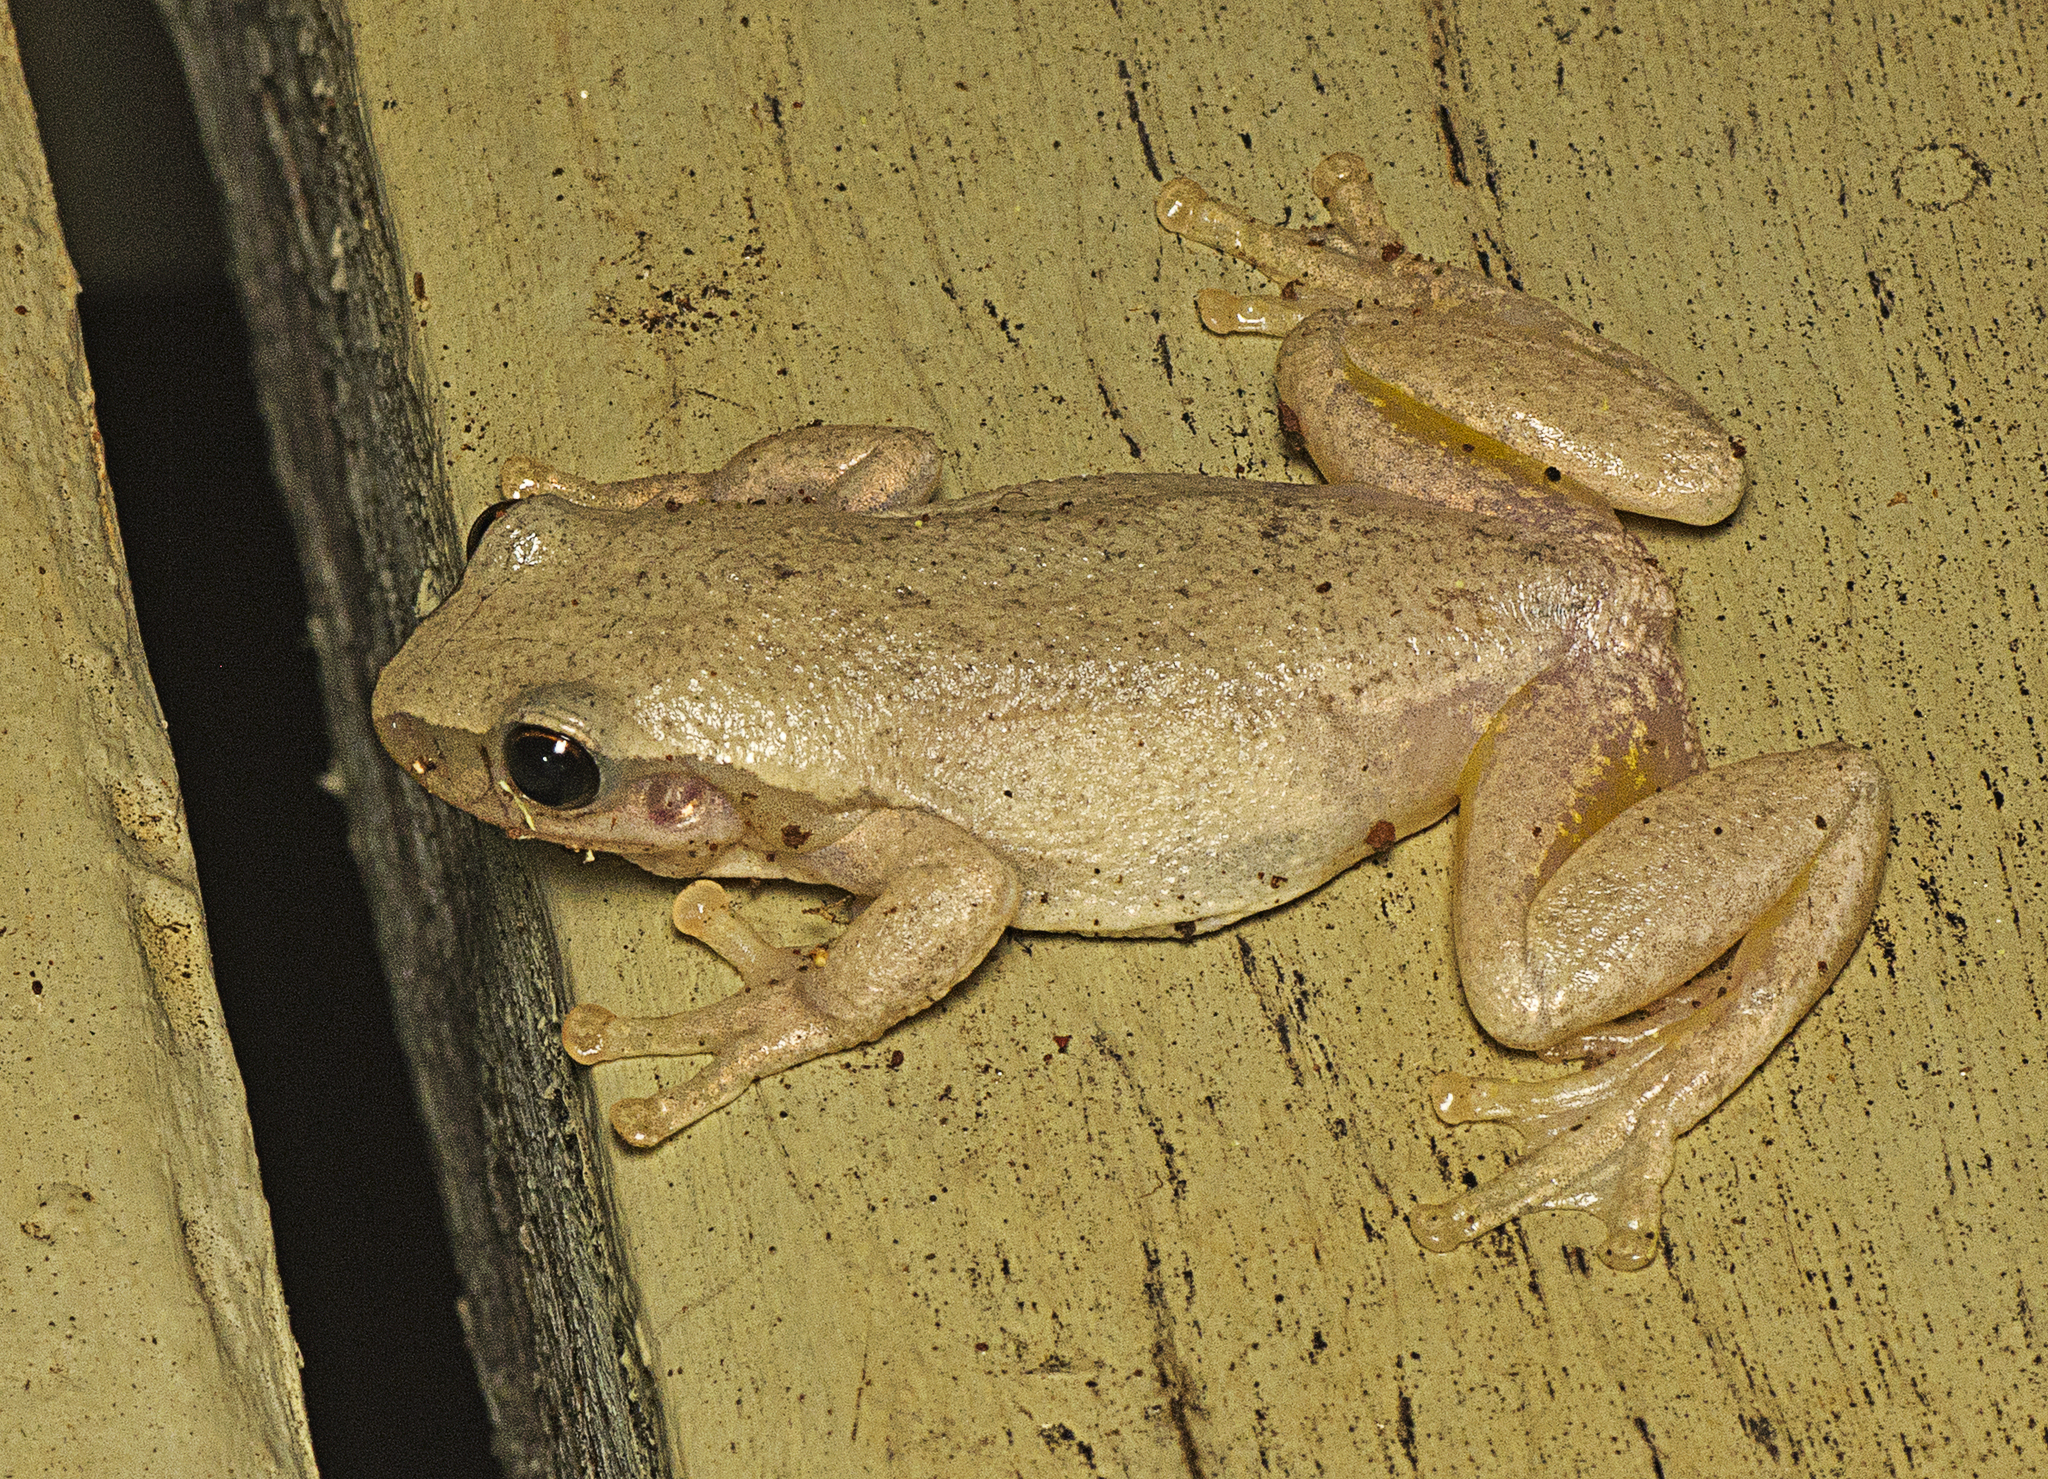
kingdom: Animalia
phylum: Chordata
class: Amphibia
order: Anura
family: Pelodryadidae
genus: Litoria
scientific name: Litoria rubella
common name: Desert tree frog
